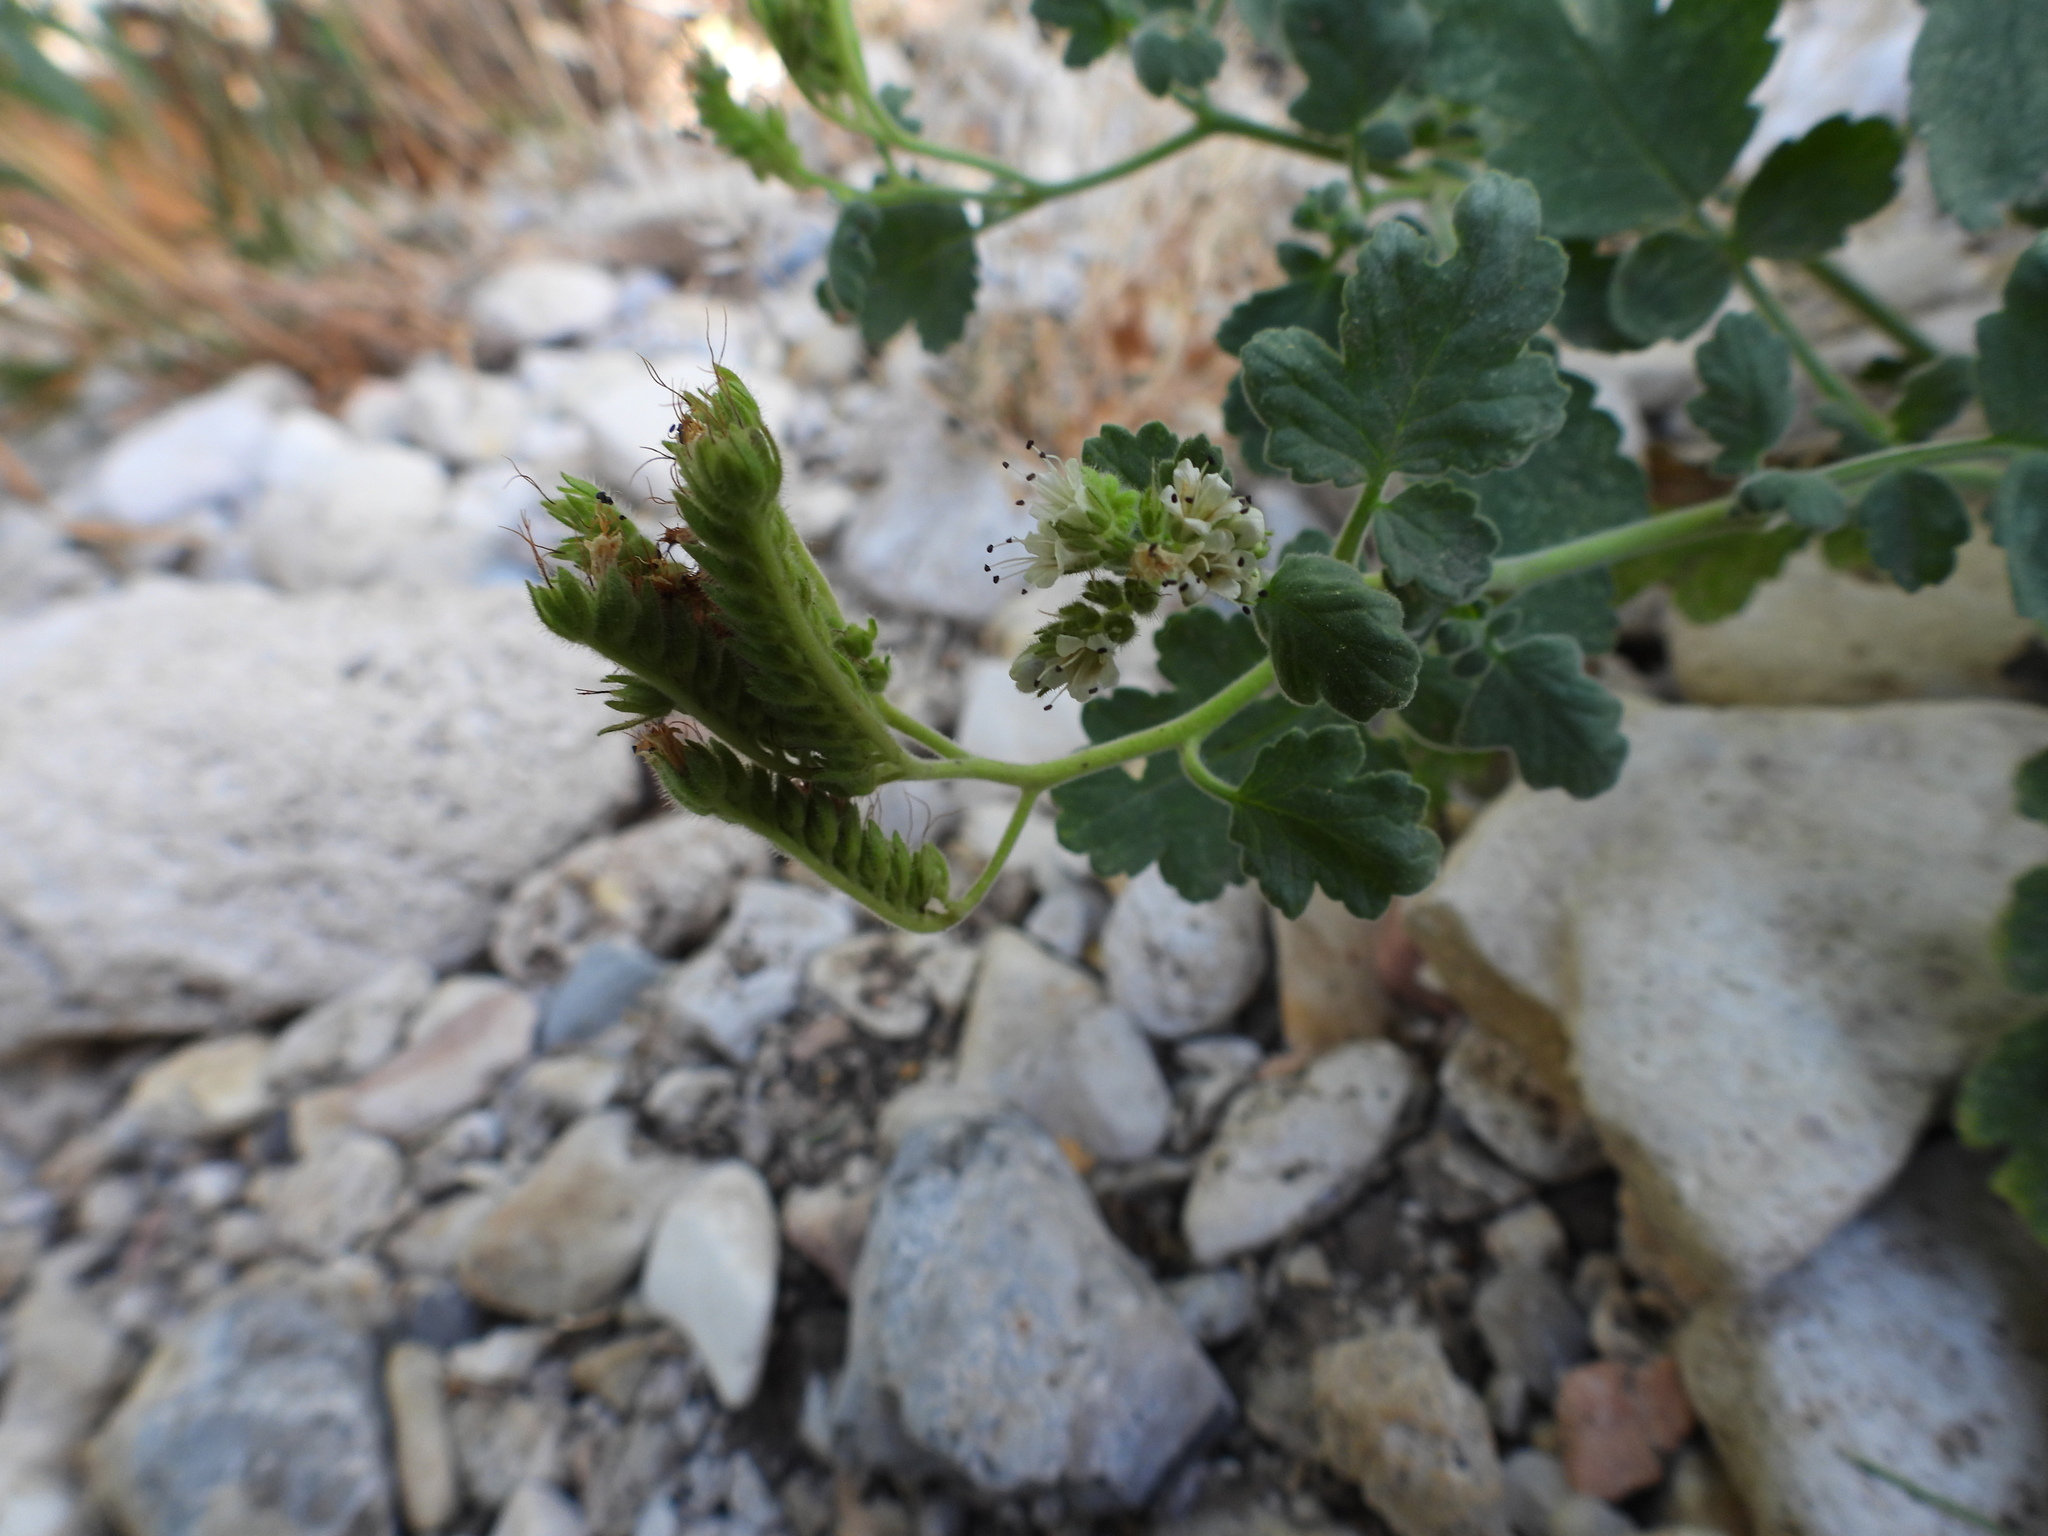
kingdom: Plantae
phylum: Tracheophyta
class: Magnoliopsida
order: Boraginales
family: Hydrophyllaceae
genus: Phacelia
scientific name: Phacelia rupestris
